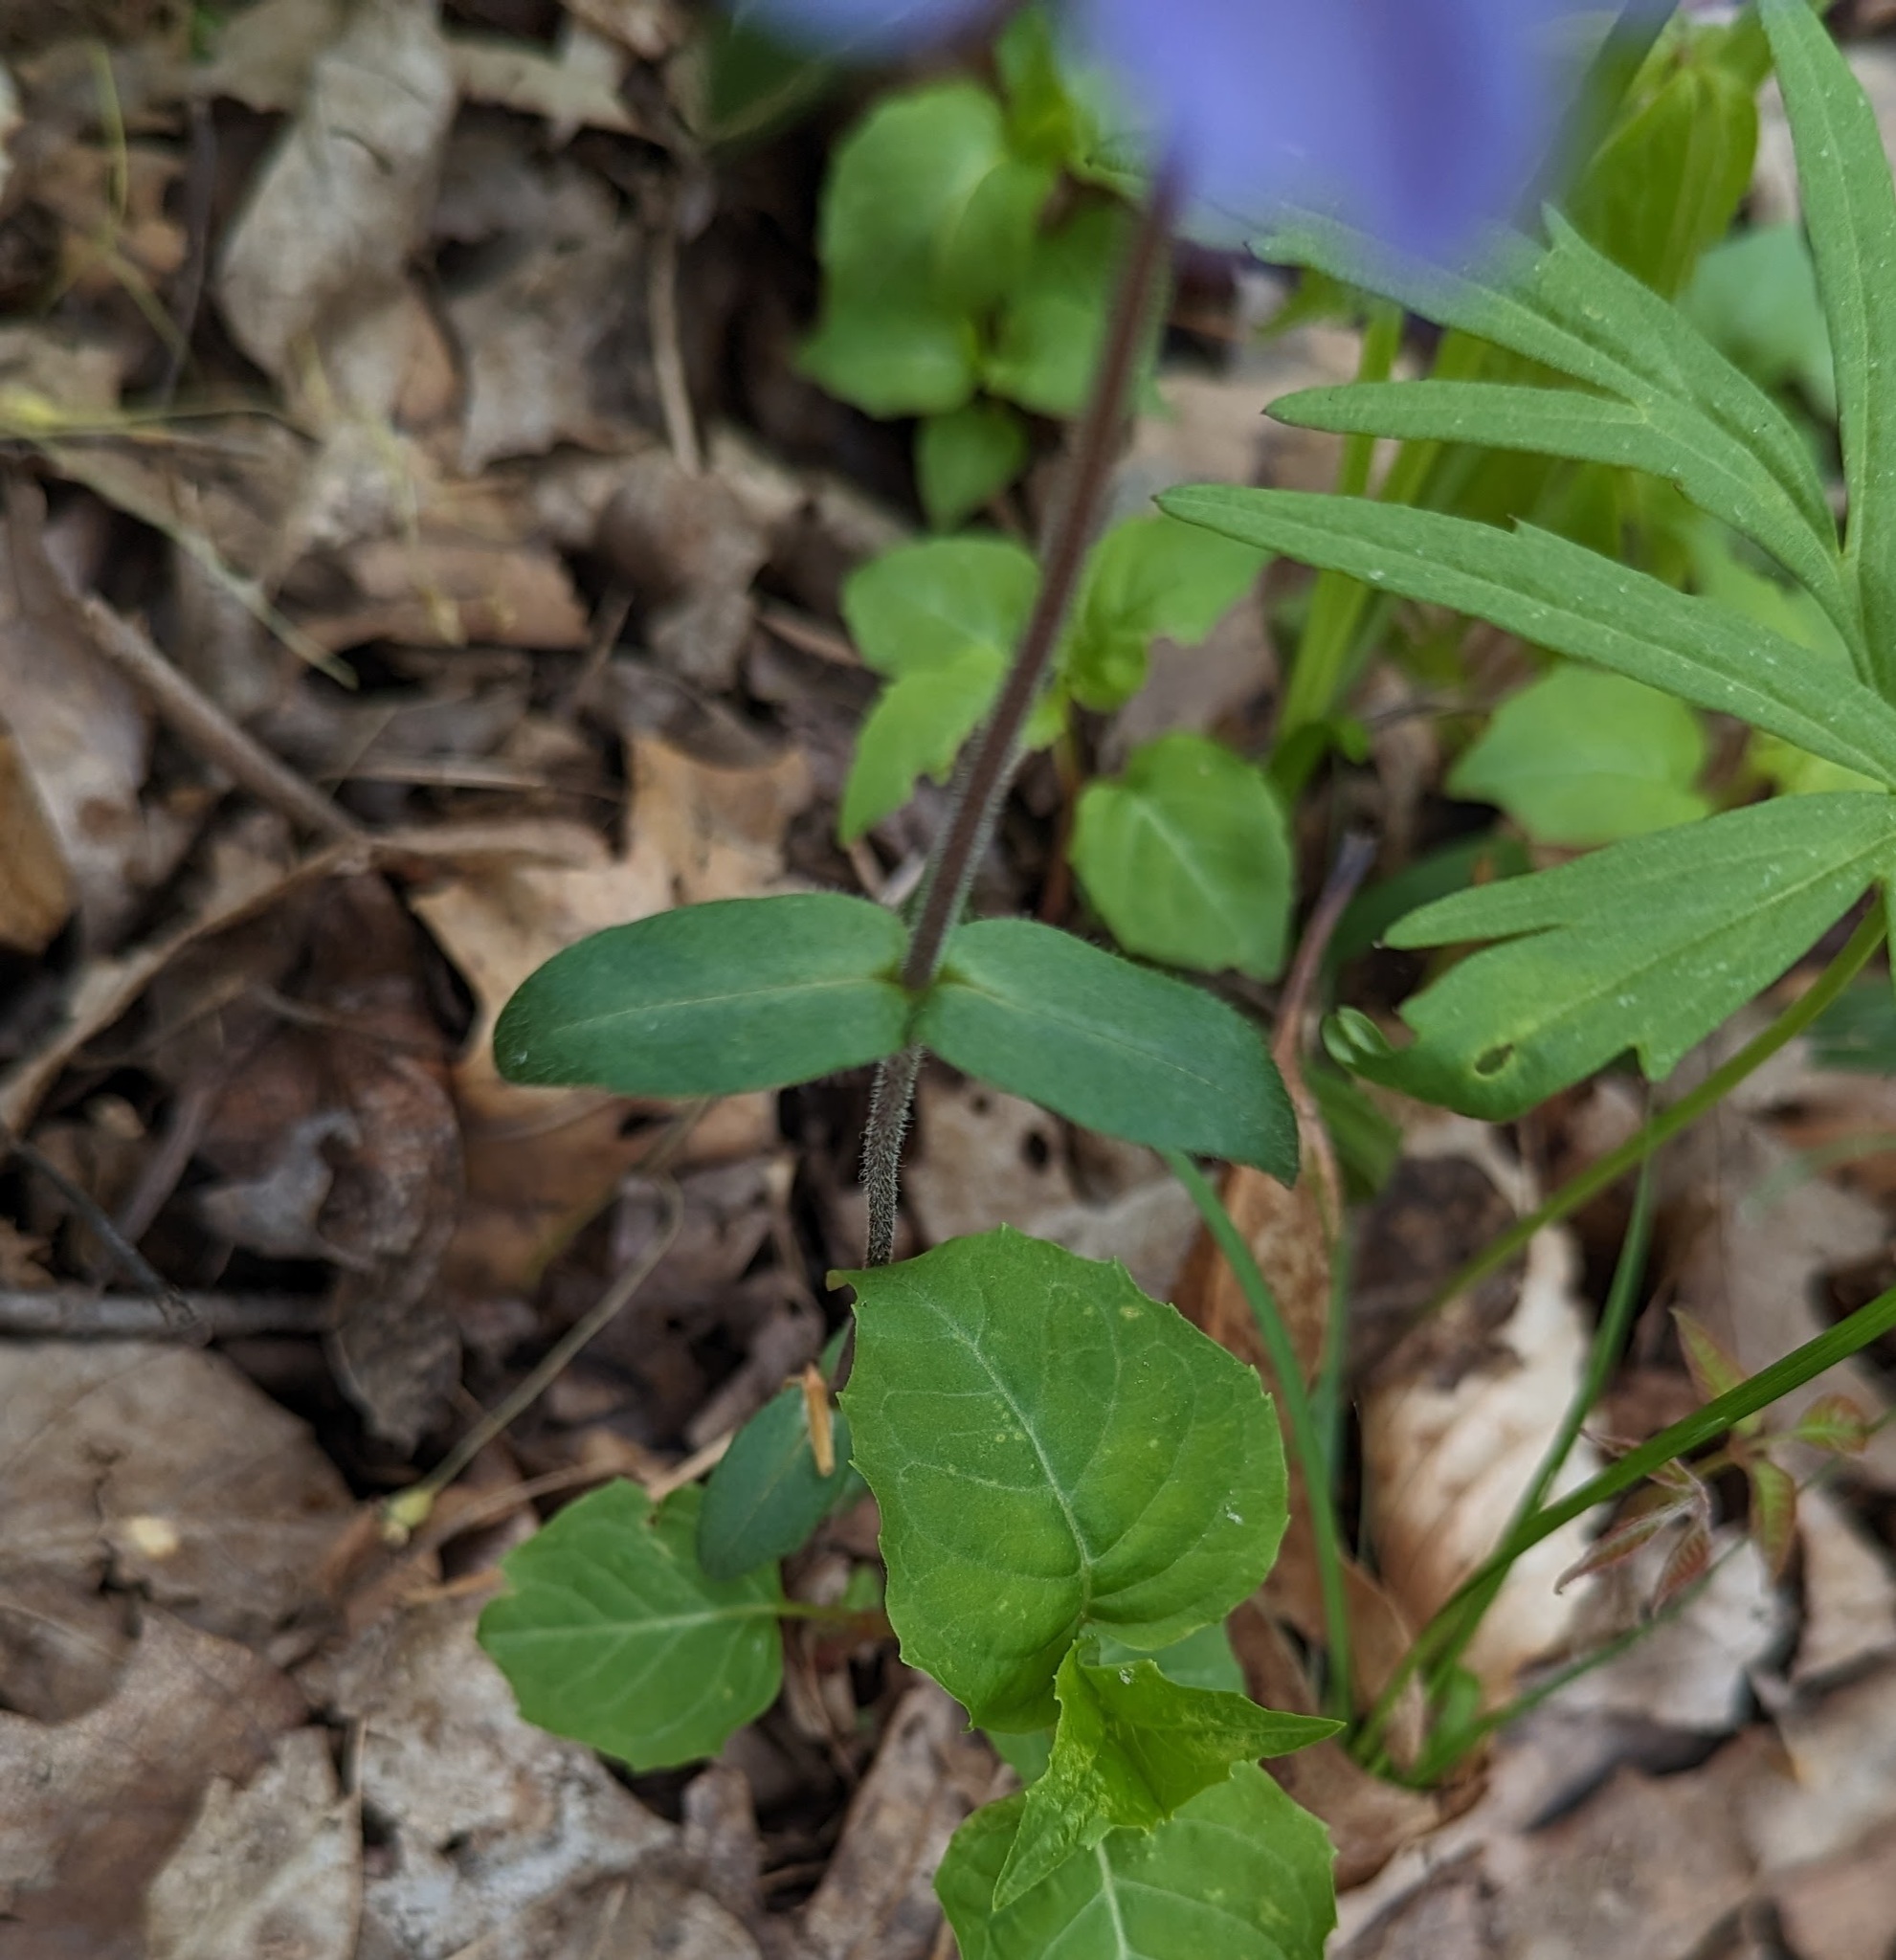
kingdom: Plantae
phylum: Tracheophyta
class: Magnoliopsida
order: Ericales
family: Polemoniaceae
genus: Phlox
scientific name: Phlox divaricata
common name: Blue phlox
